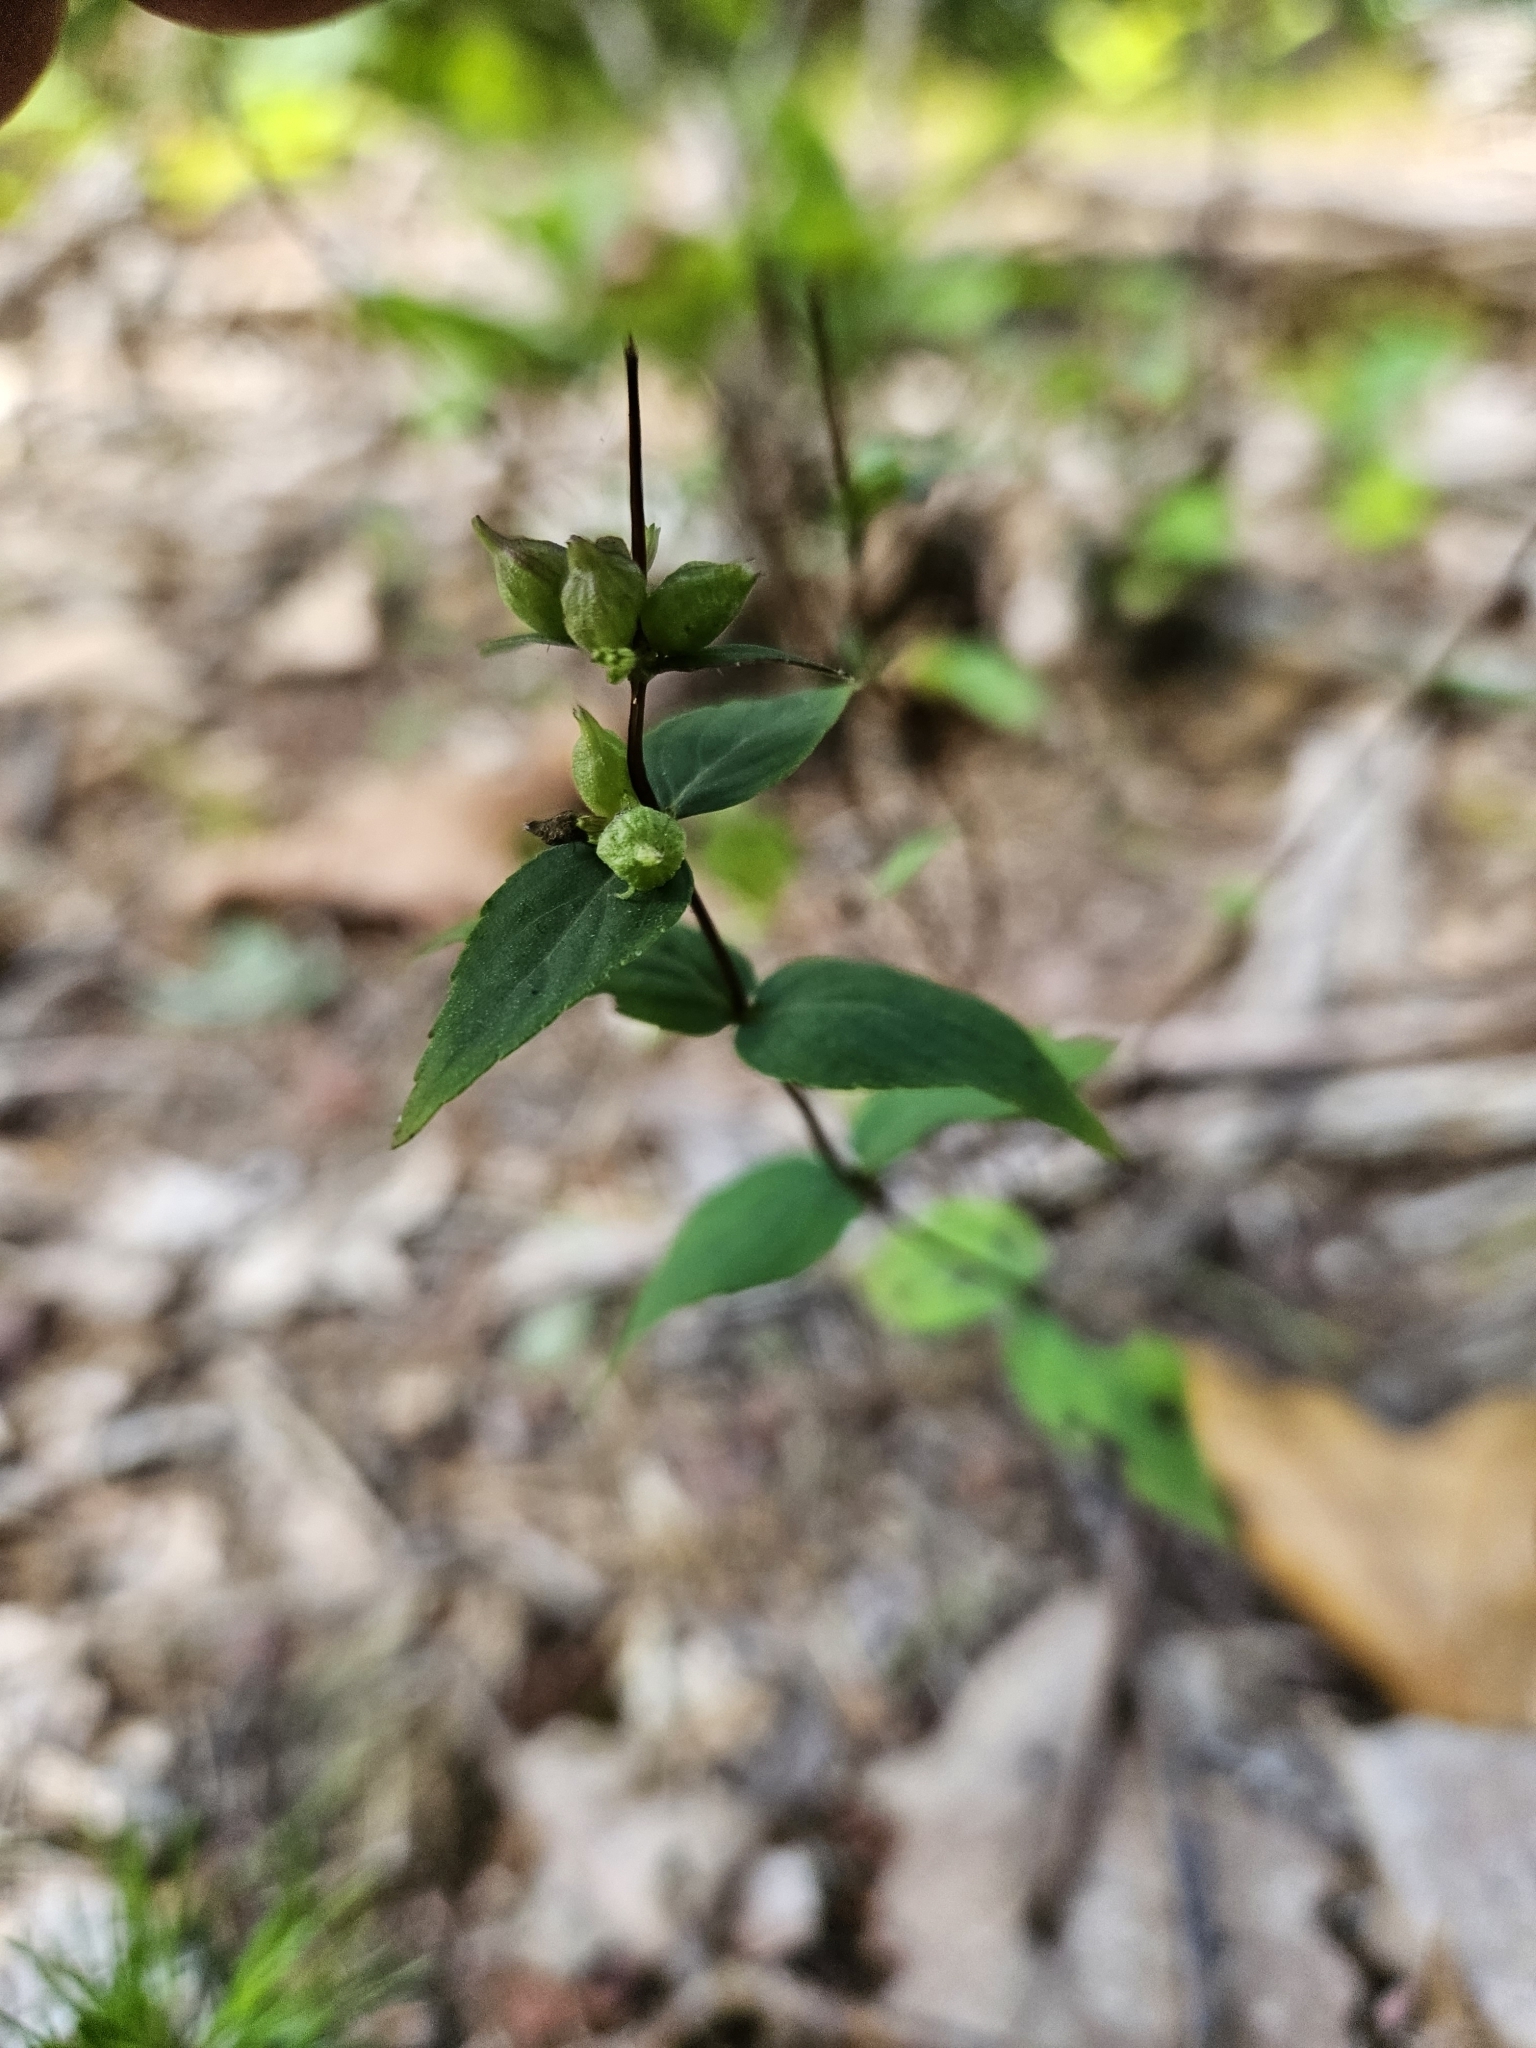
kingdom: Plantae
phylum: Tracheophyta
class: Magnoliopsida
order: Lamiales
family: Lamiaceae
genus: Cunila
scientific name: Cunila origanoides
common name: American dittany
